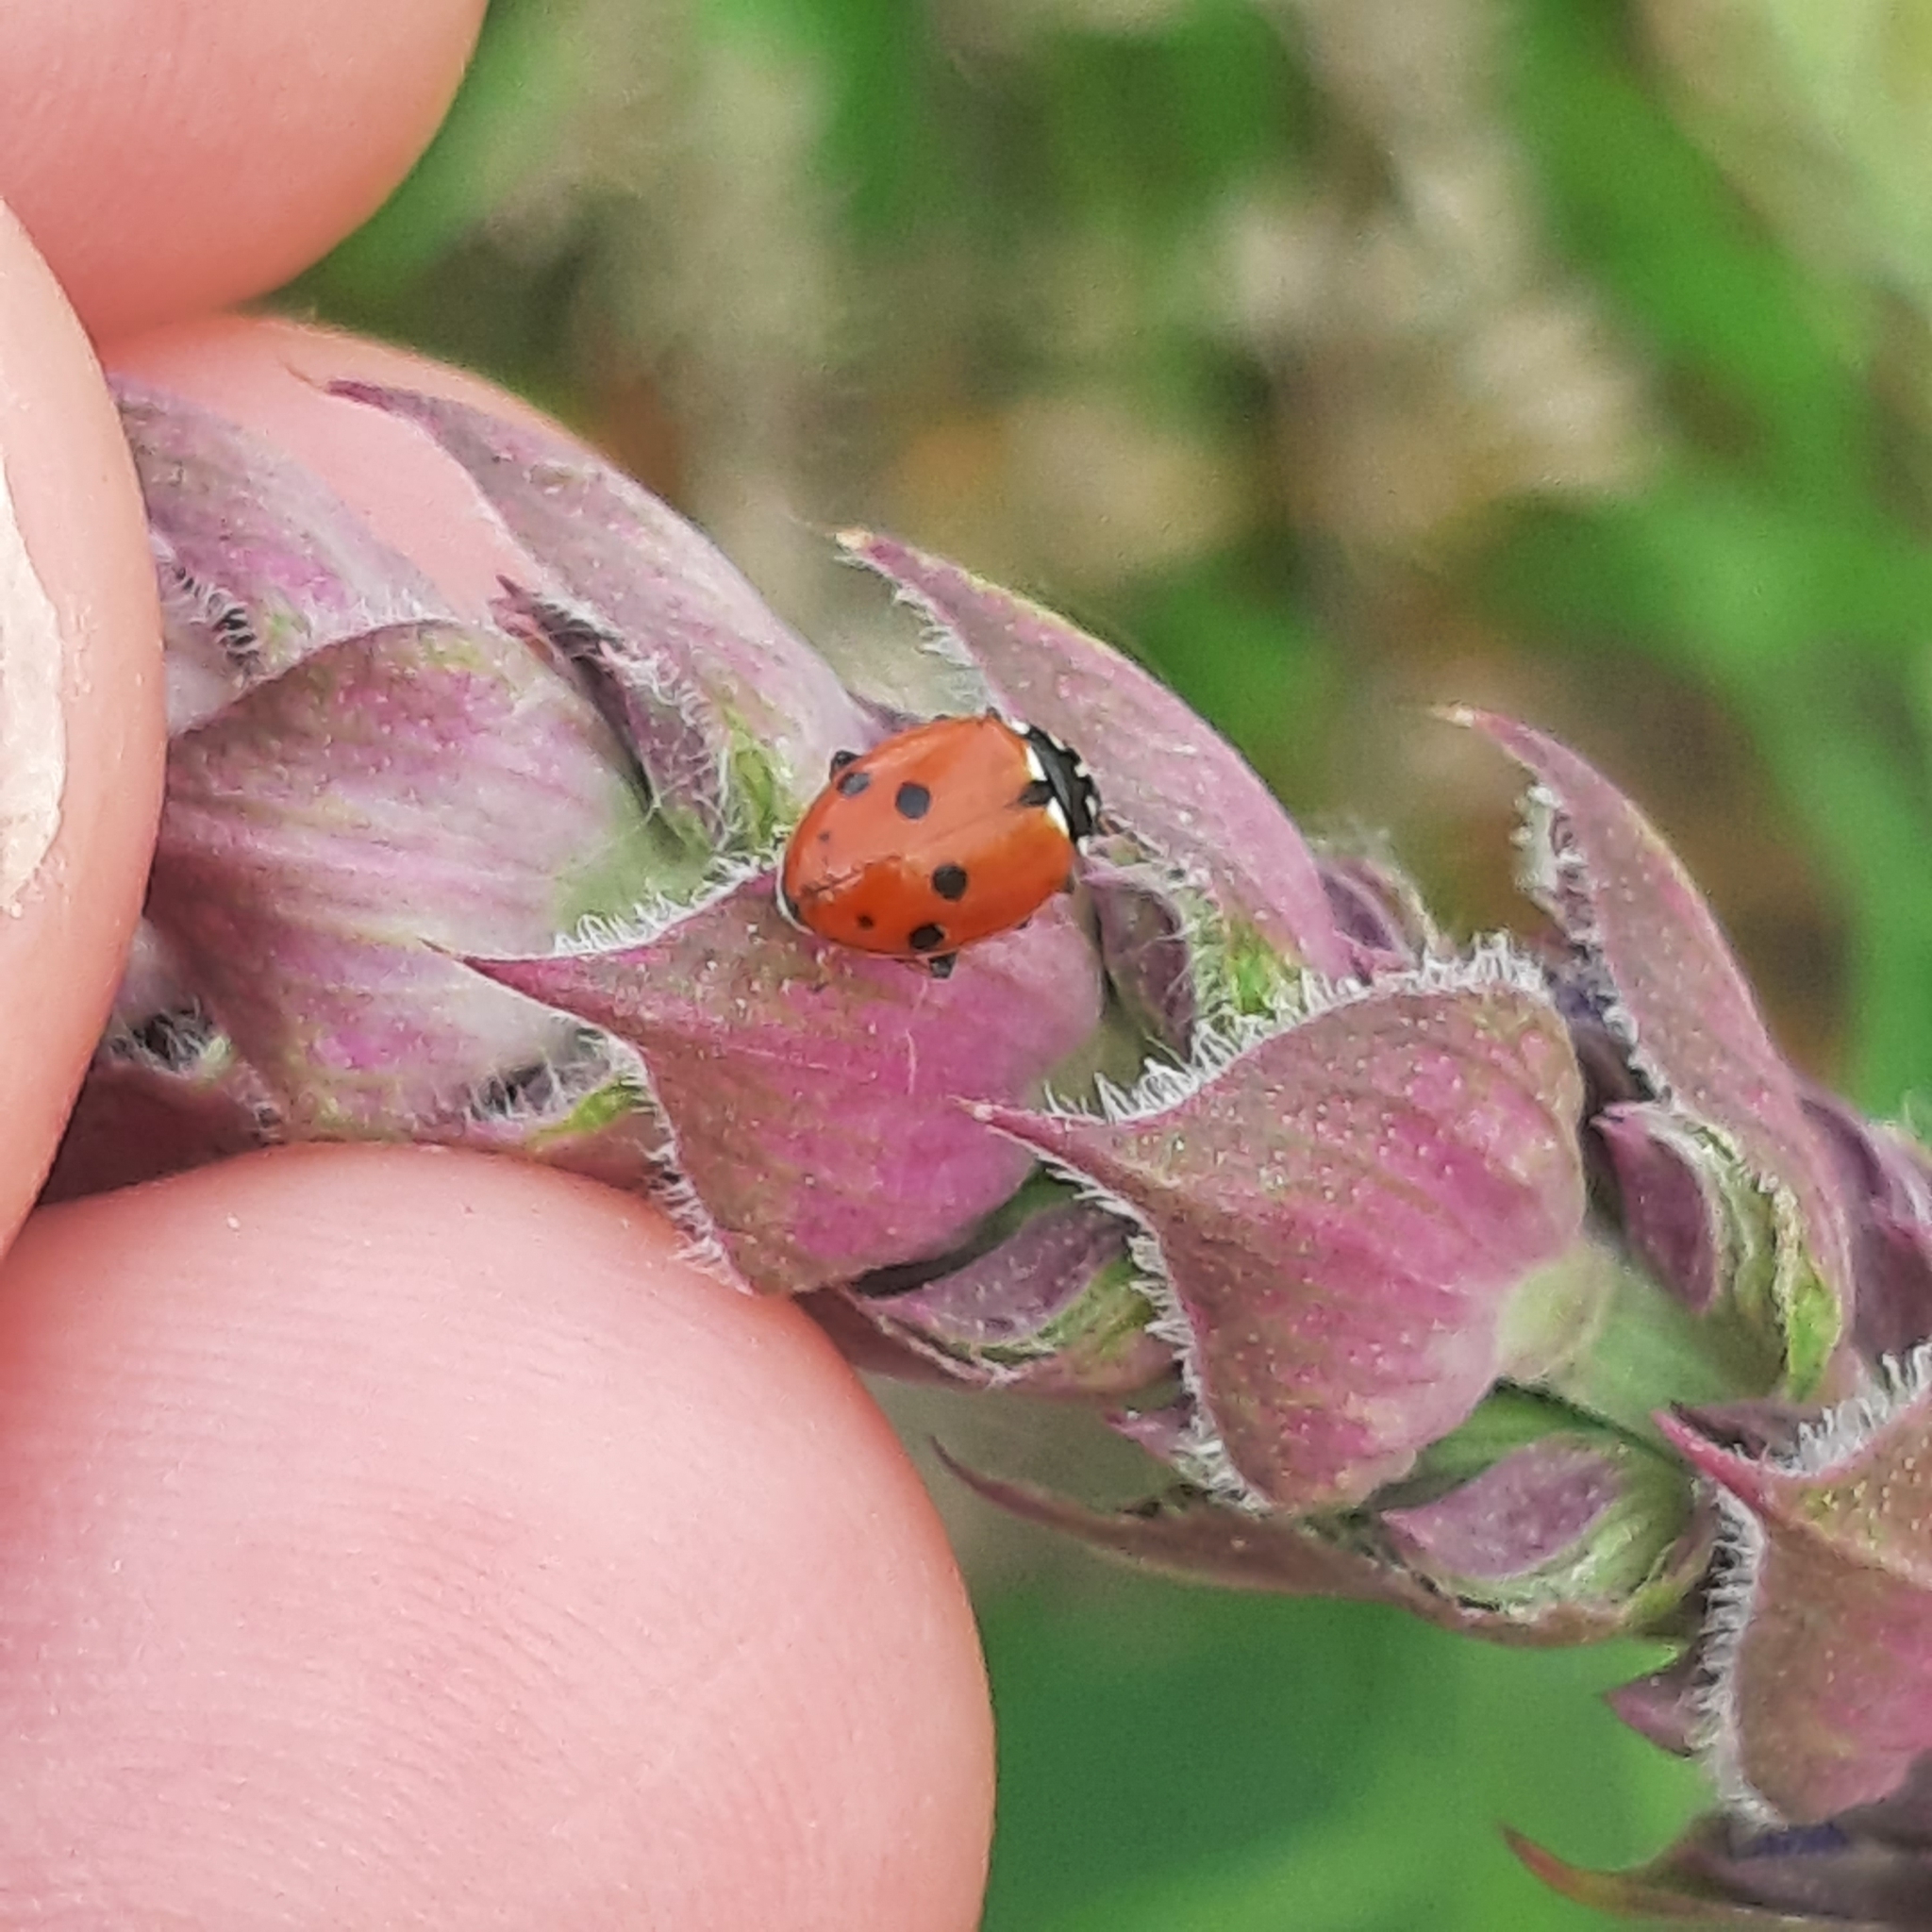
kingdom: Animalia
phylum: Arthropoda
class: Insecta
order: Coleoptera
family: Coccinellidae
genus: Hippodamia
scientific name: Hippodamia variegata
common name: Ladybird beetle
